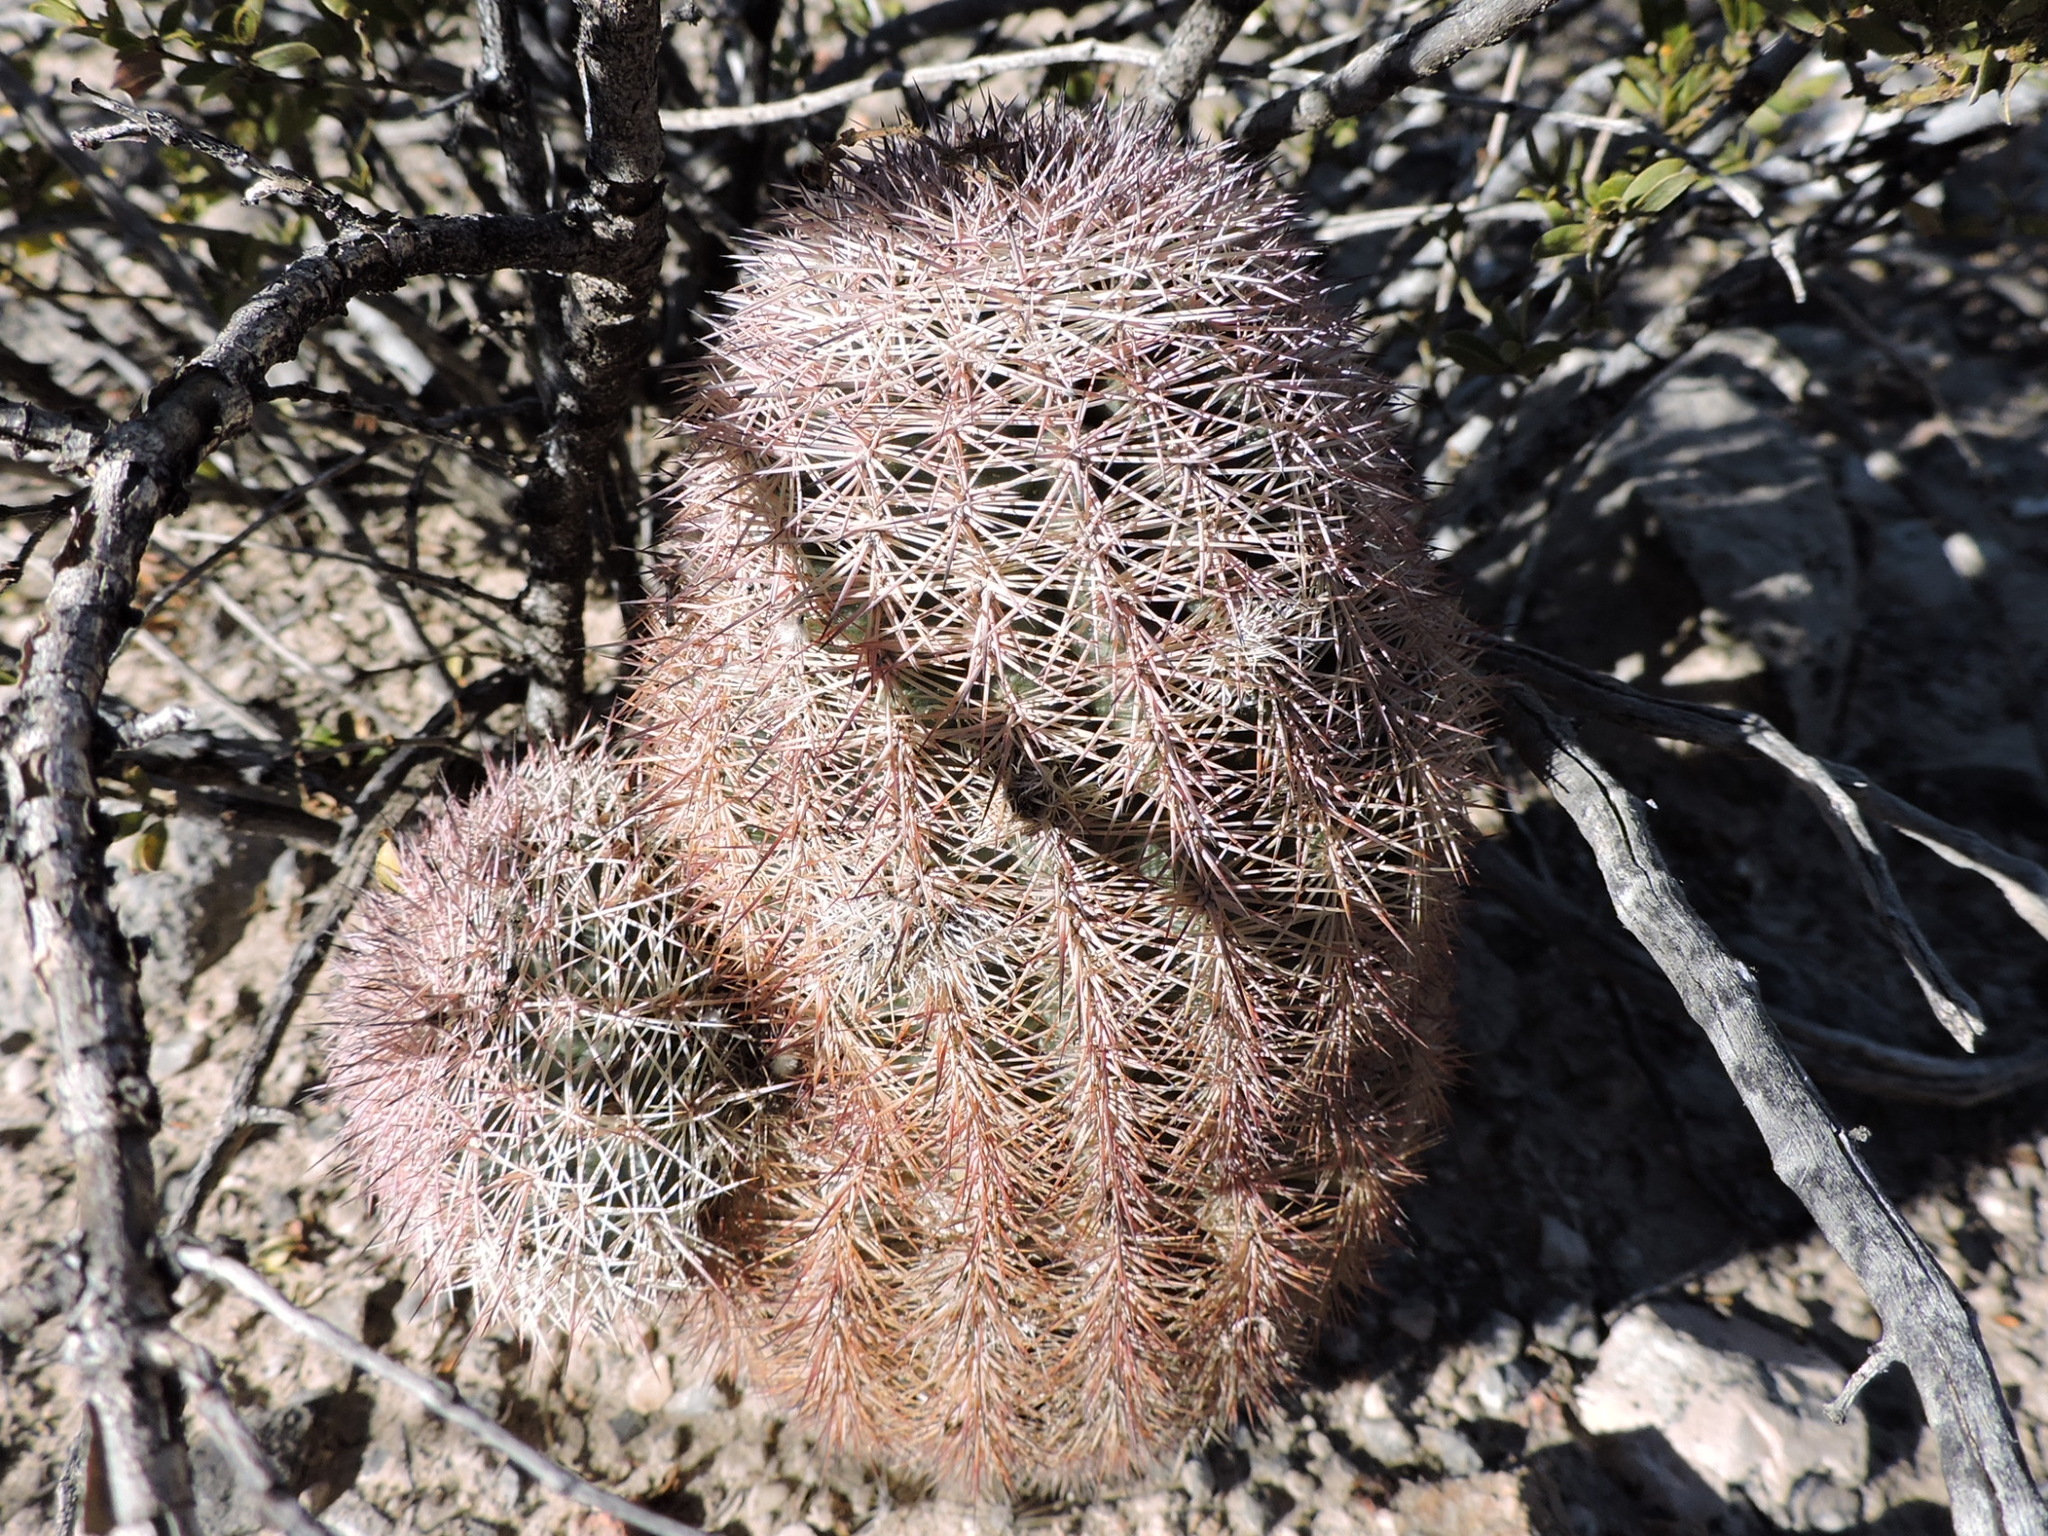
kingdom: Plantae
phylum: Tracheophyta
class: Magnoliopsida
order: Caryophyllales
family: Cactaceae
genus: Echinocereus
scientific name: Echinocereus dasyacanthus
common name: Spiny hedgehog cactus
